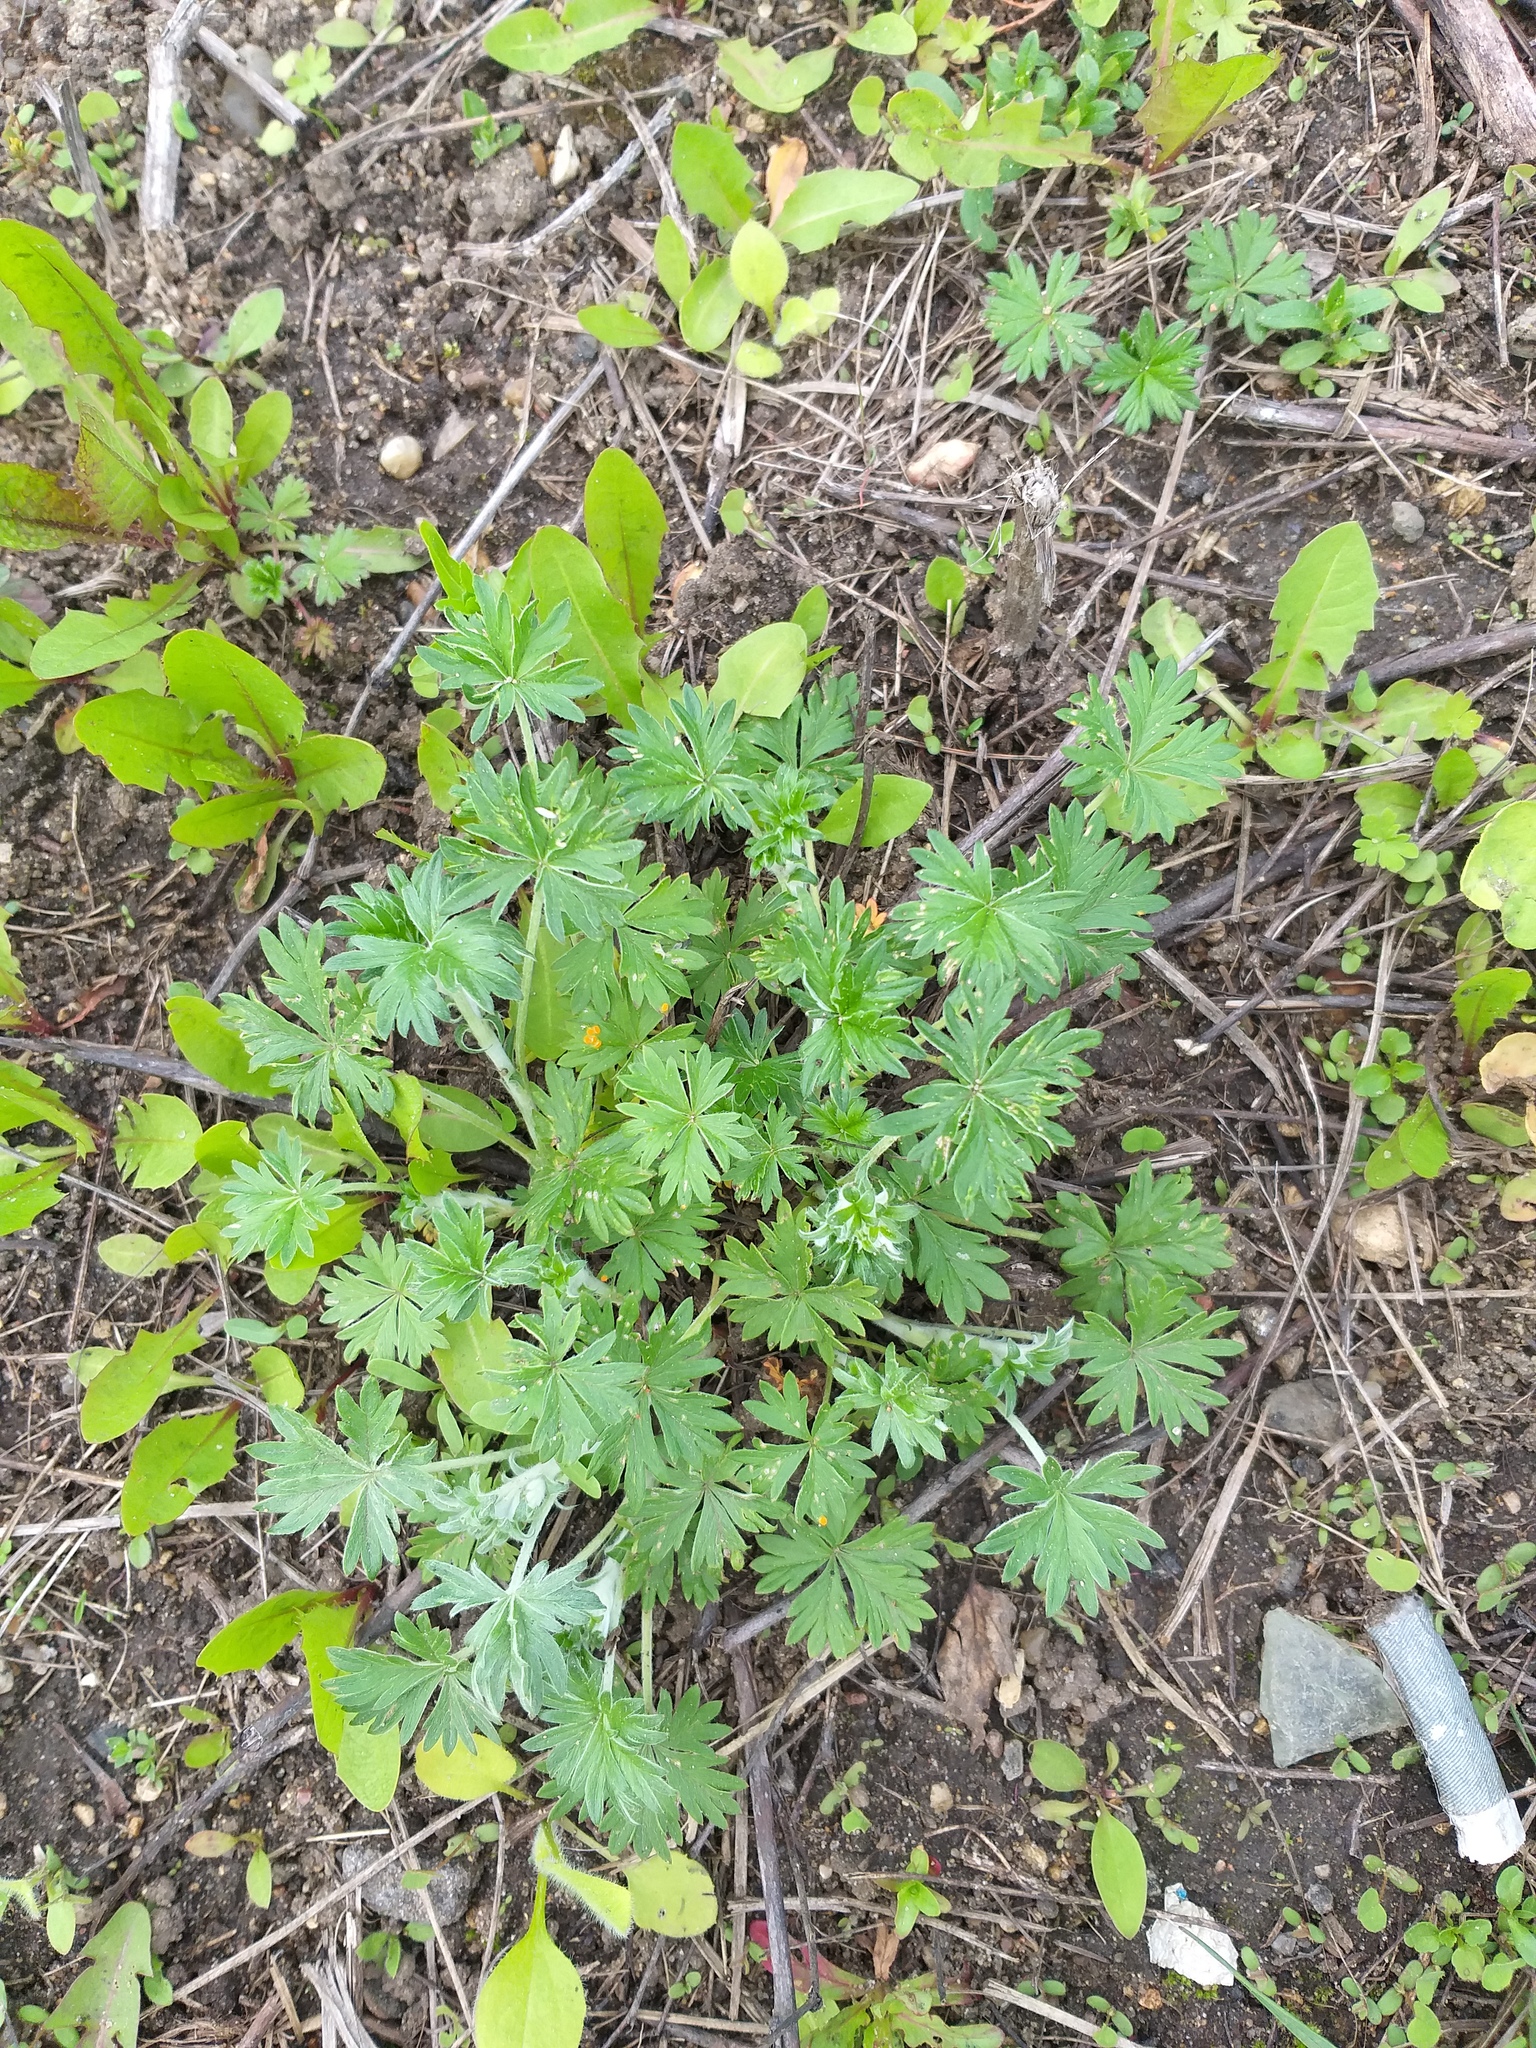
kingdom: Plantae
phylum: Tracheophyta
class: Magnoliopsida
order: Rosales
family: Rosaceae
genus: Potentilla
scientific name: Potentilla argentea
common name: Hoary cinquefoil
